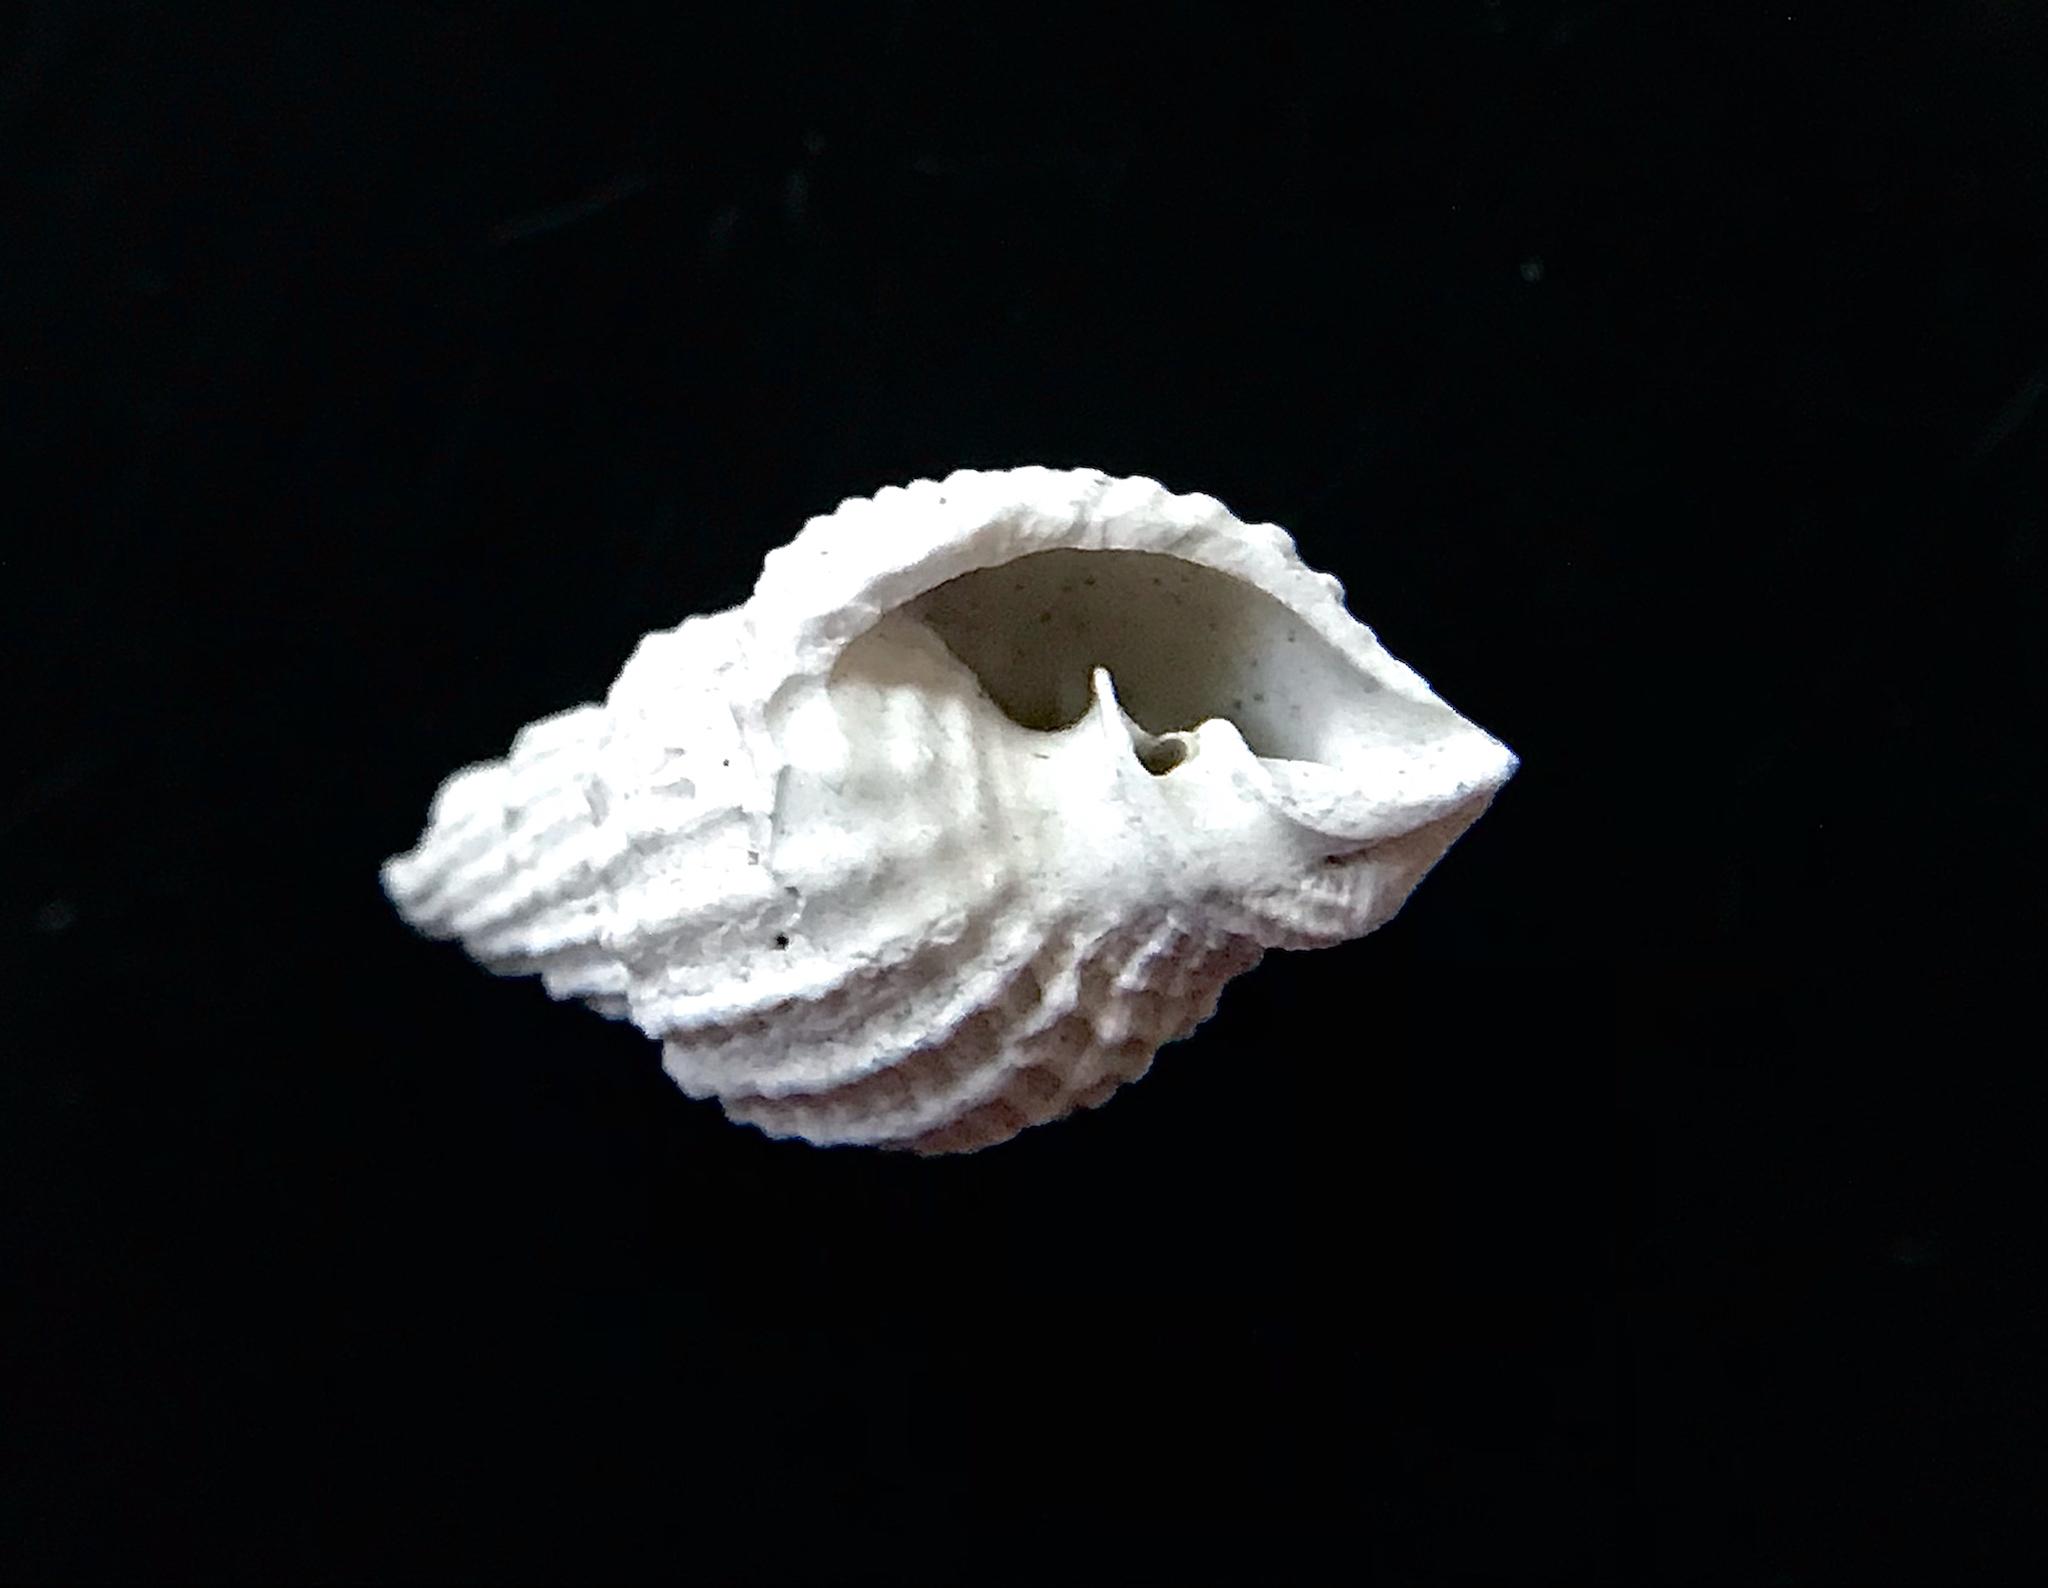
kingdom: Animalia
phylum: Mollusca
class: Gastropoda
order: Neogastropoda
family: Cancellariidae
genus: Cancellaria
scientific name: Cancellaria reticulata
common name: Common nutmeg
